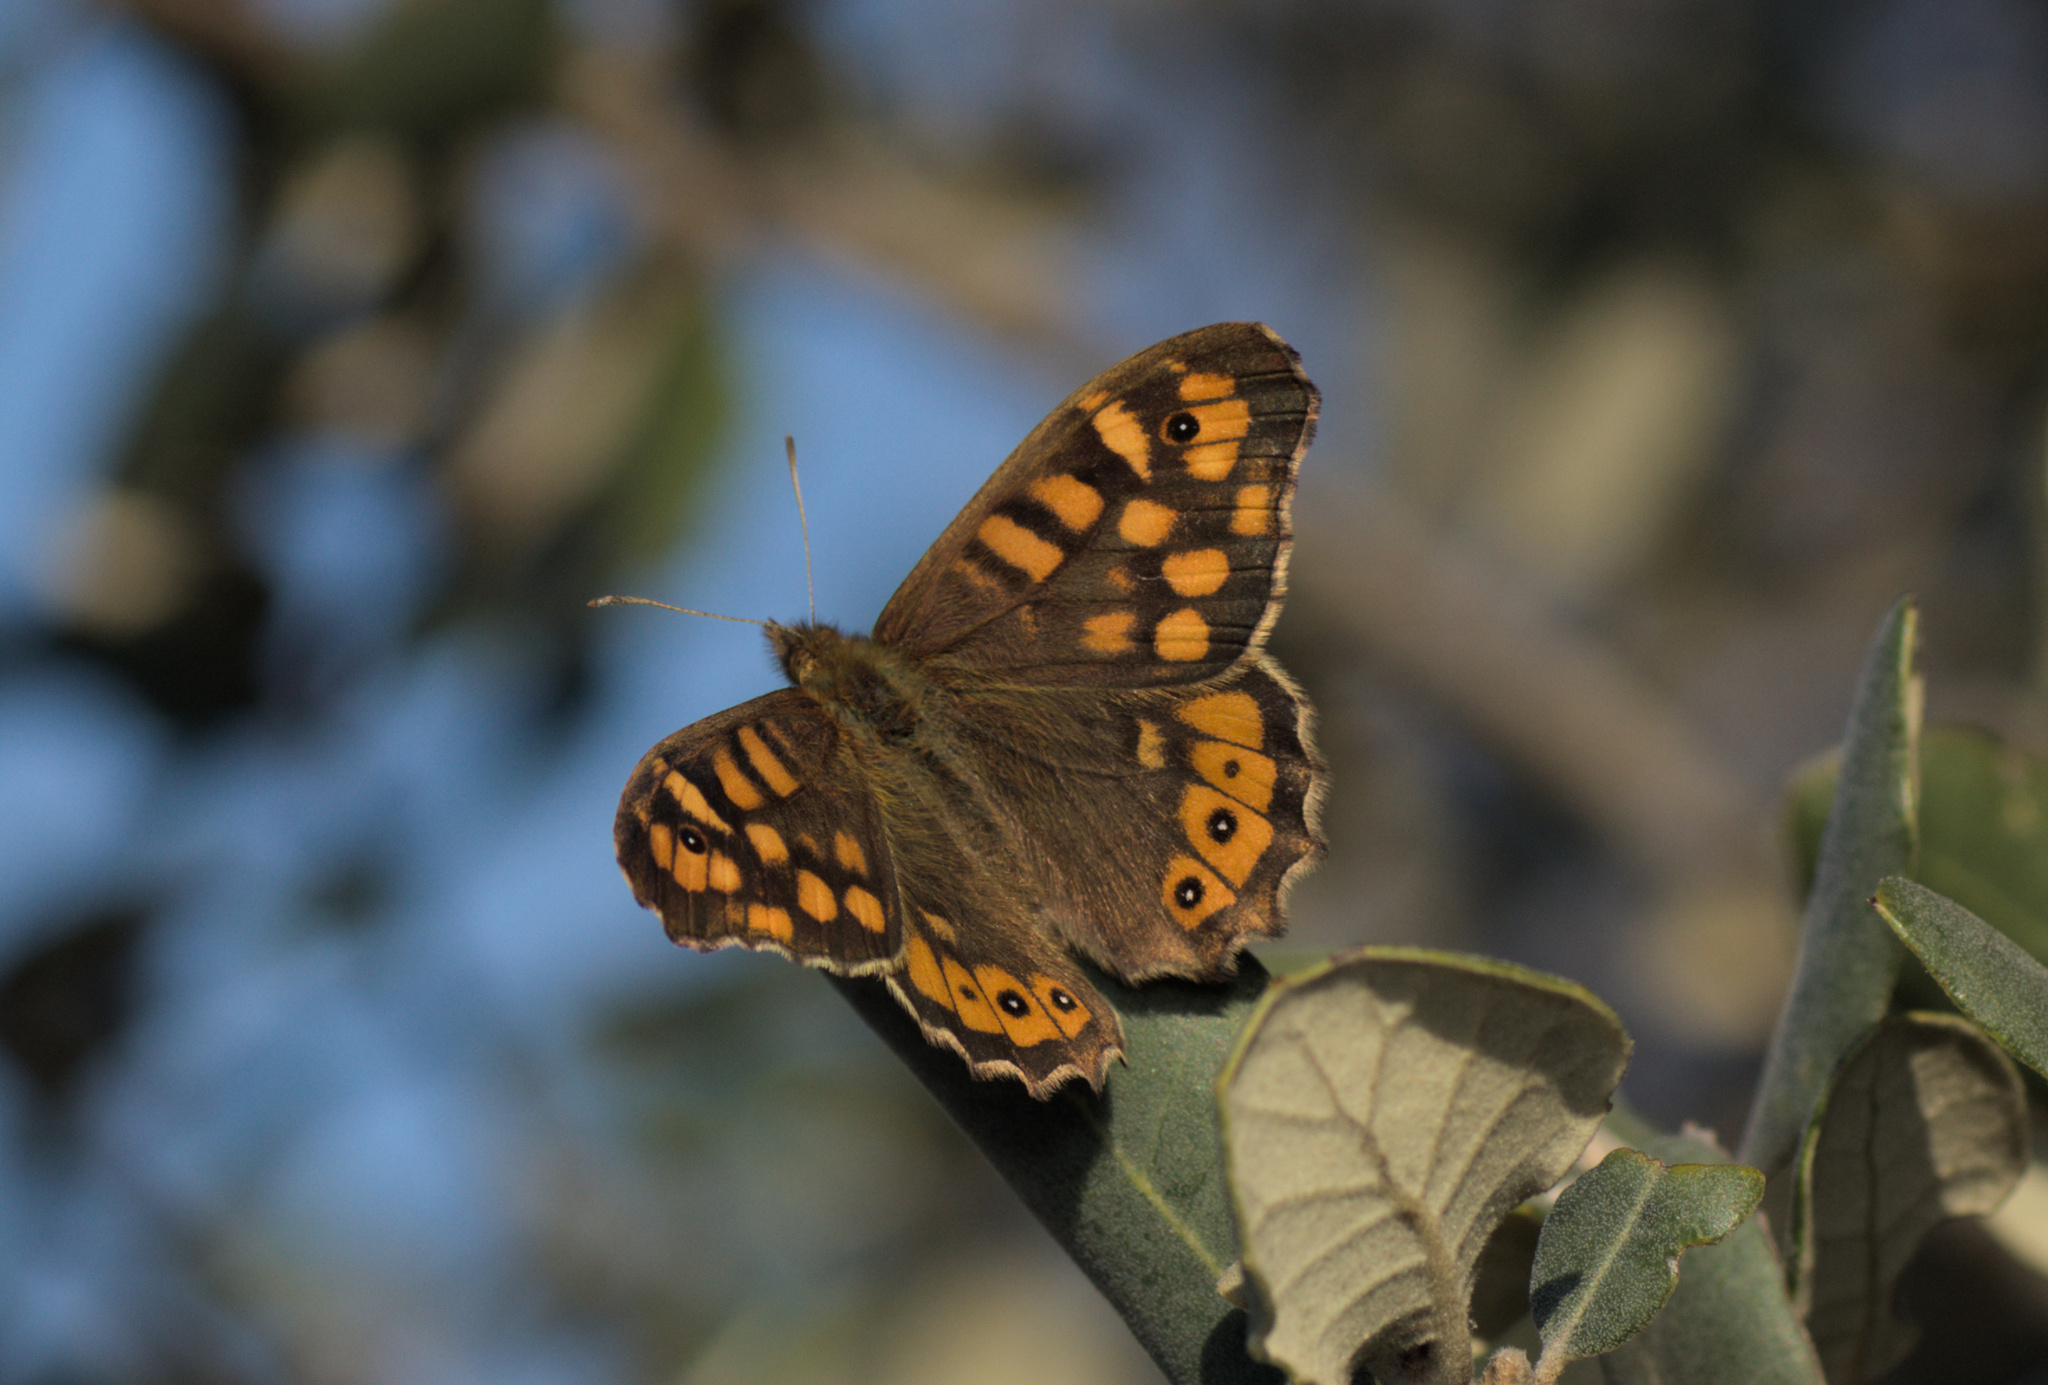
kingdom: Animalia
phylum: Arthropoda
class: Insecta
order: Lepidoptera
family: Nymphalidae
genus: Pararge
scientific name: Pararge aegeria
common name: Speckled wood
